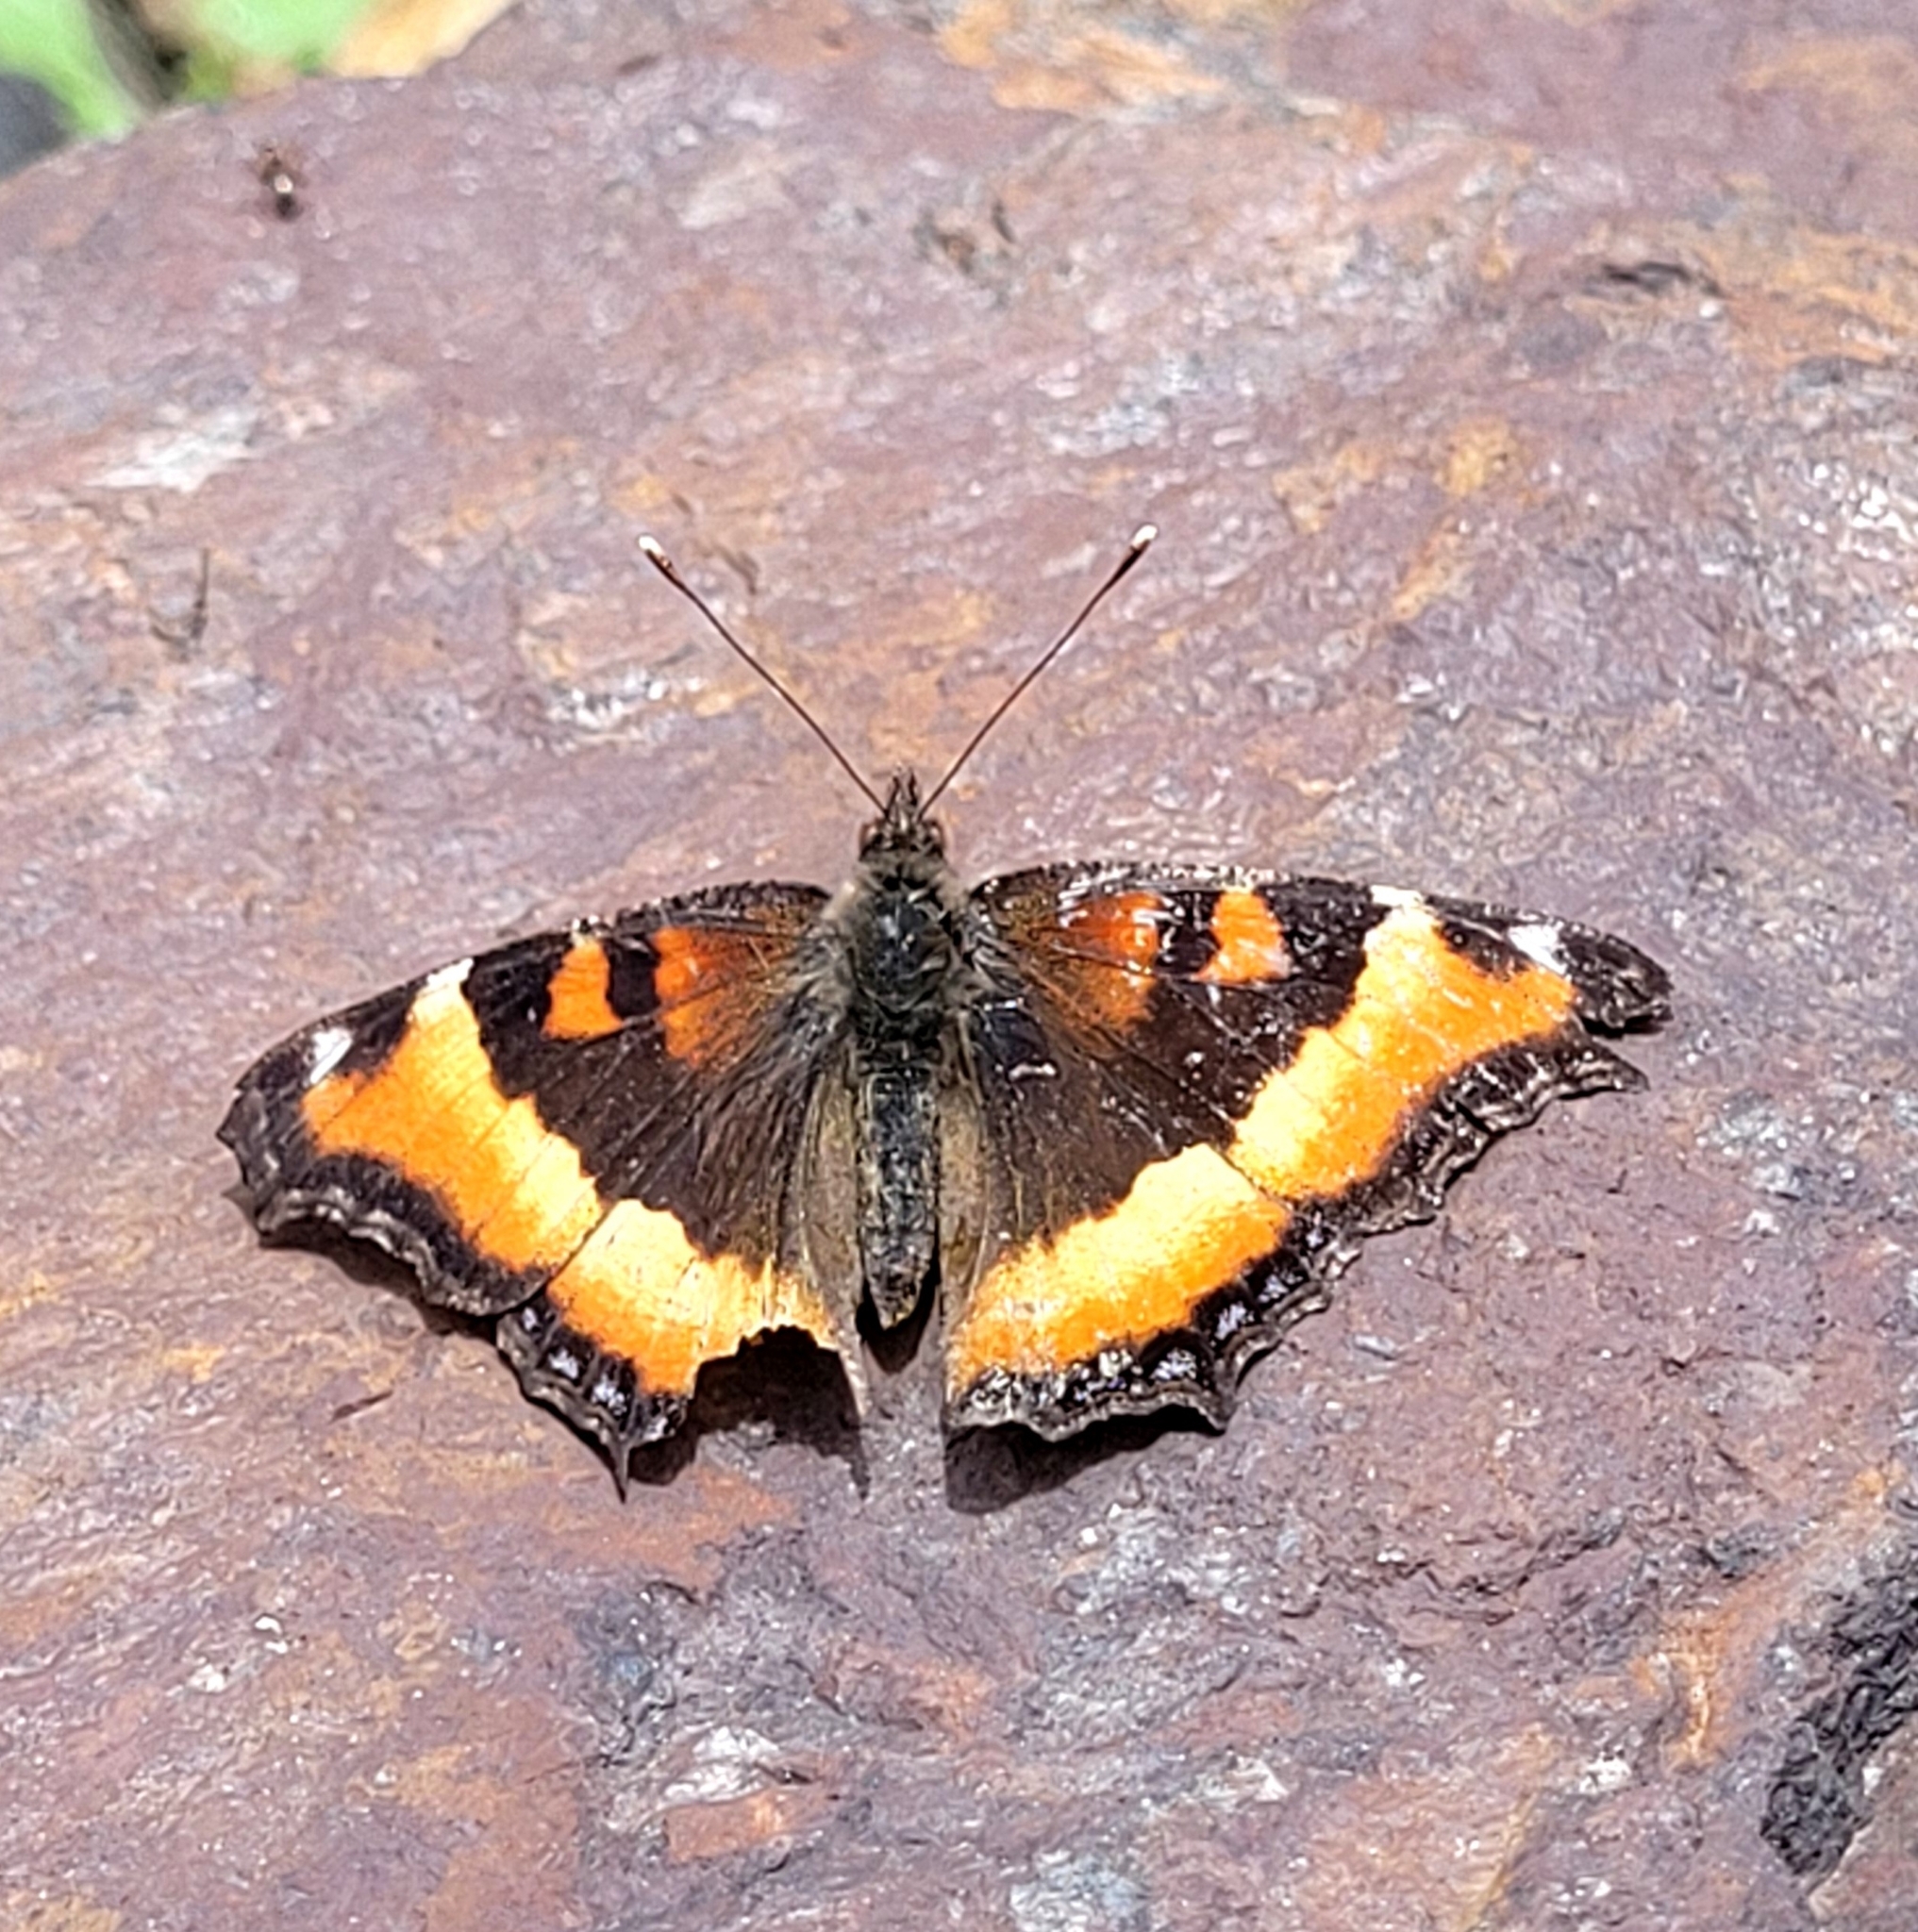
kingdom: Animalia
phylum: Arthropoda
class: Insecta
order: Lepidoptera
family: Nymphalidae
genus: Aglais
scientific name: Aglais milberti
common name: Milbert's tortoiseshell
